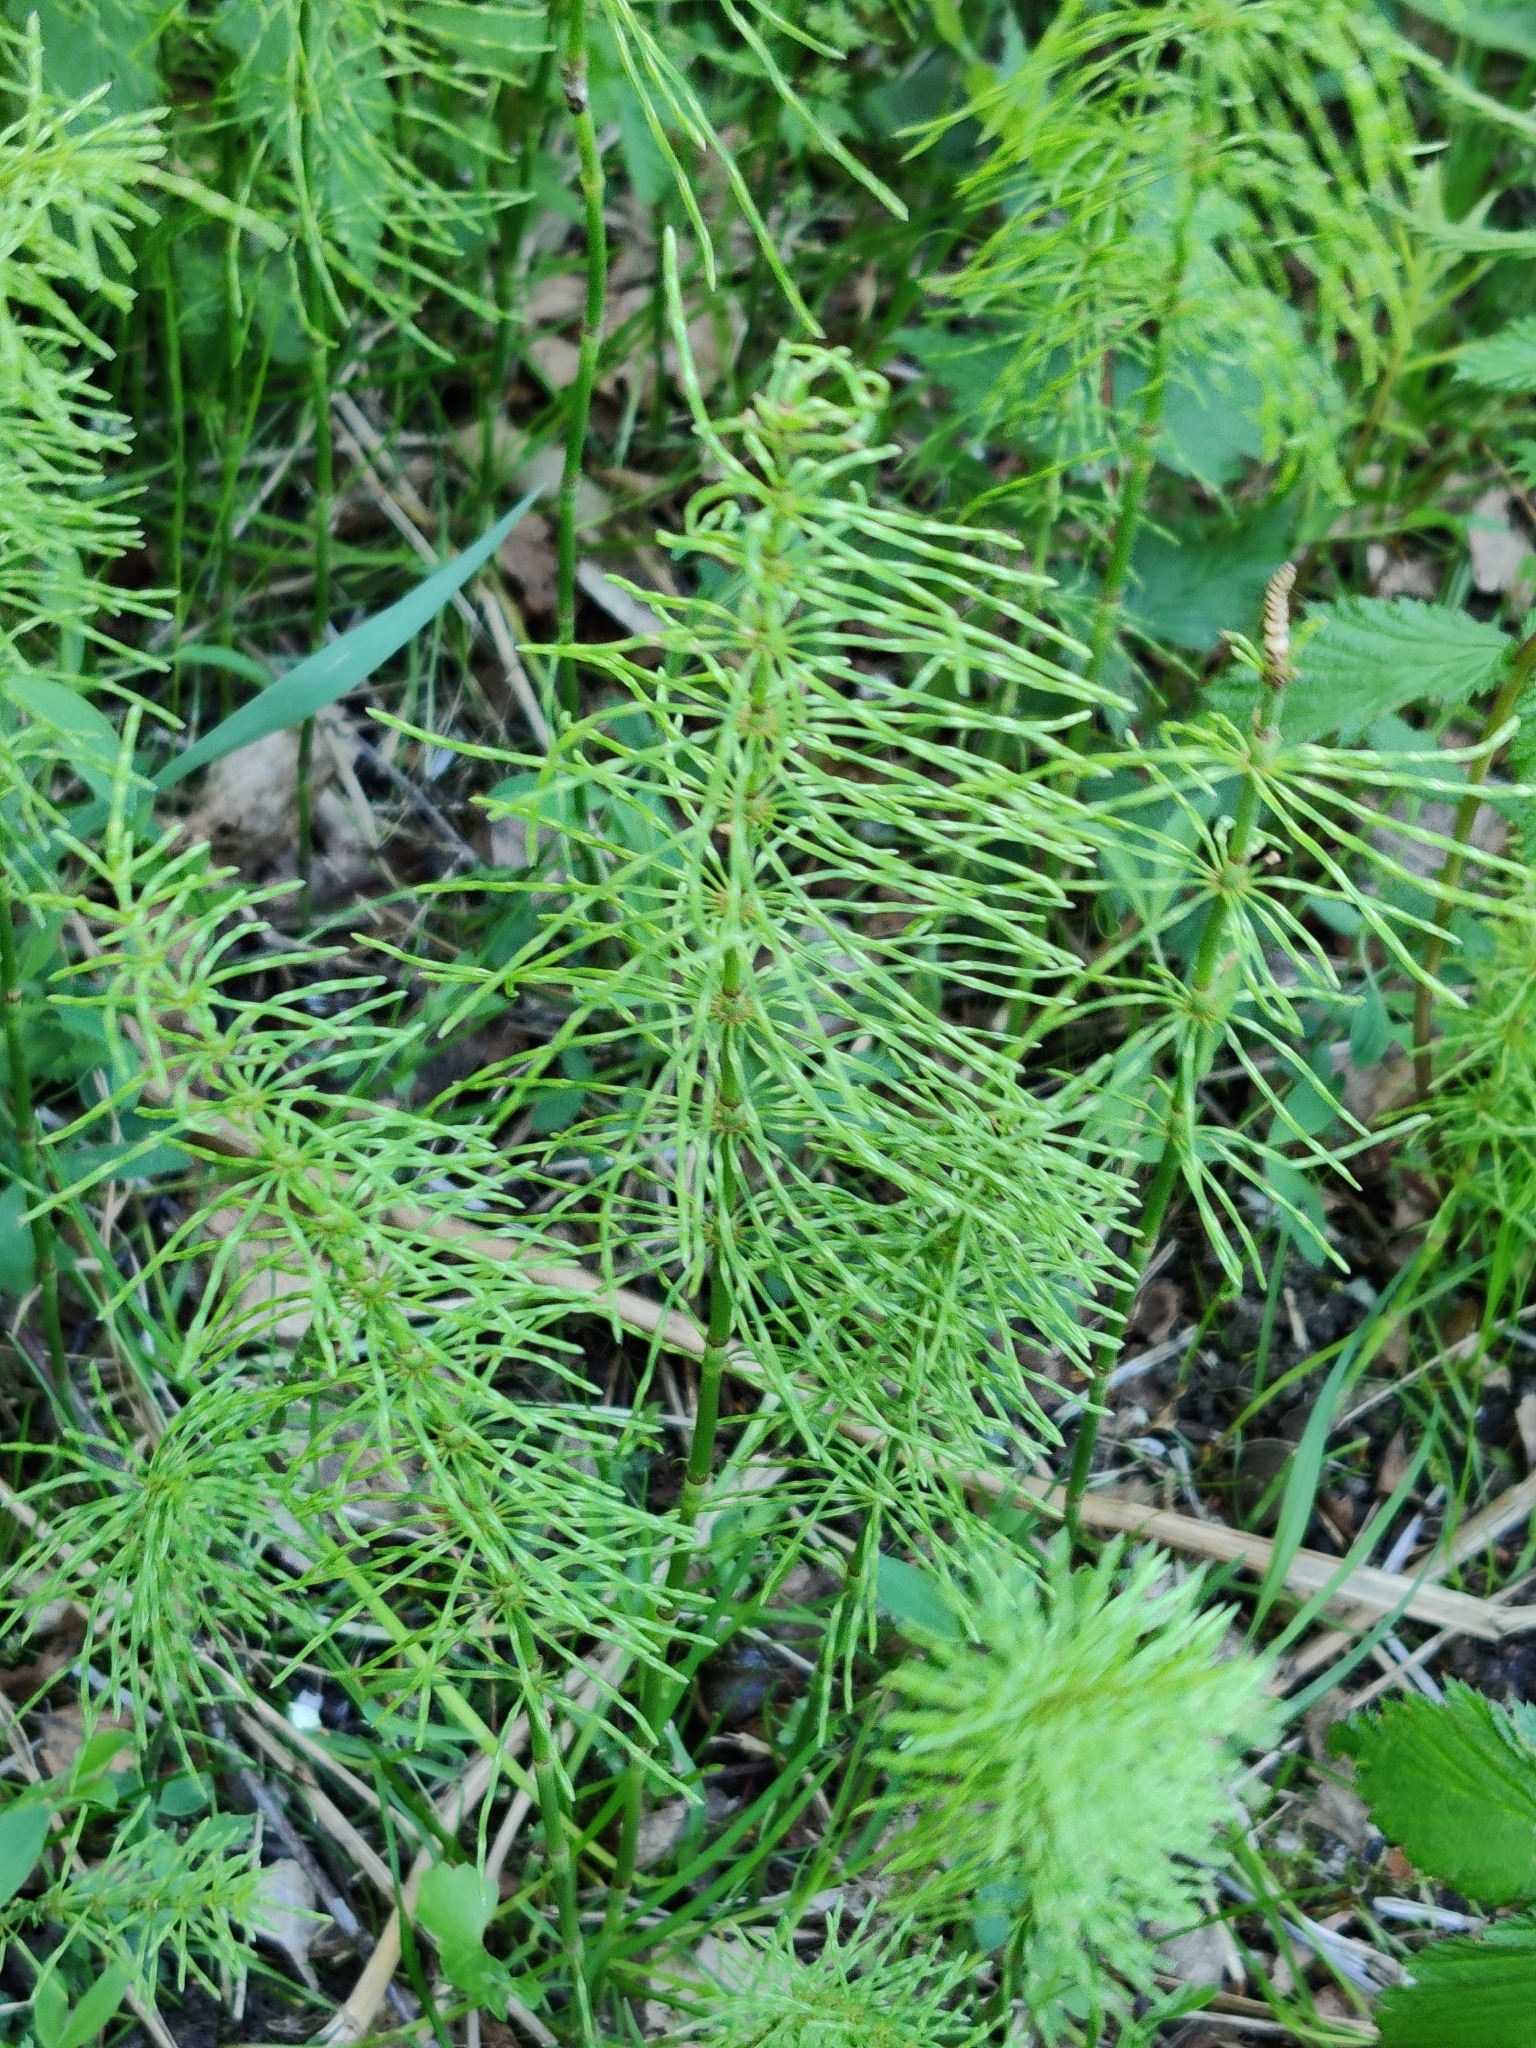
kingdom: Plantae
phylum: Tracheophyta
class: Polypodiopsida
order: Equisetales
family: Equisetaceae
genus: Equisetum
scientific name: Equisetum pratense
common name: Meadow horsetail
